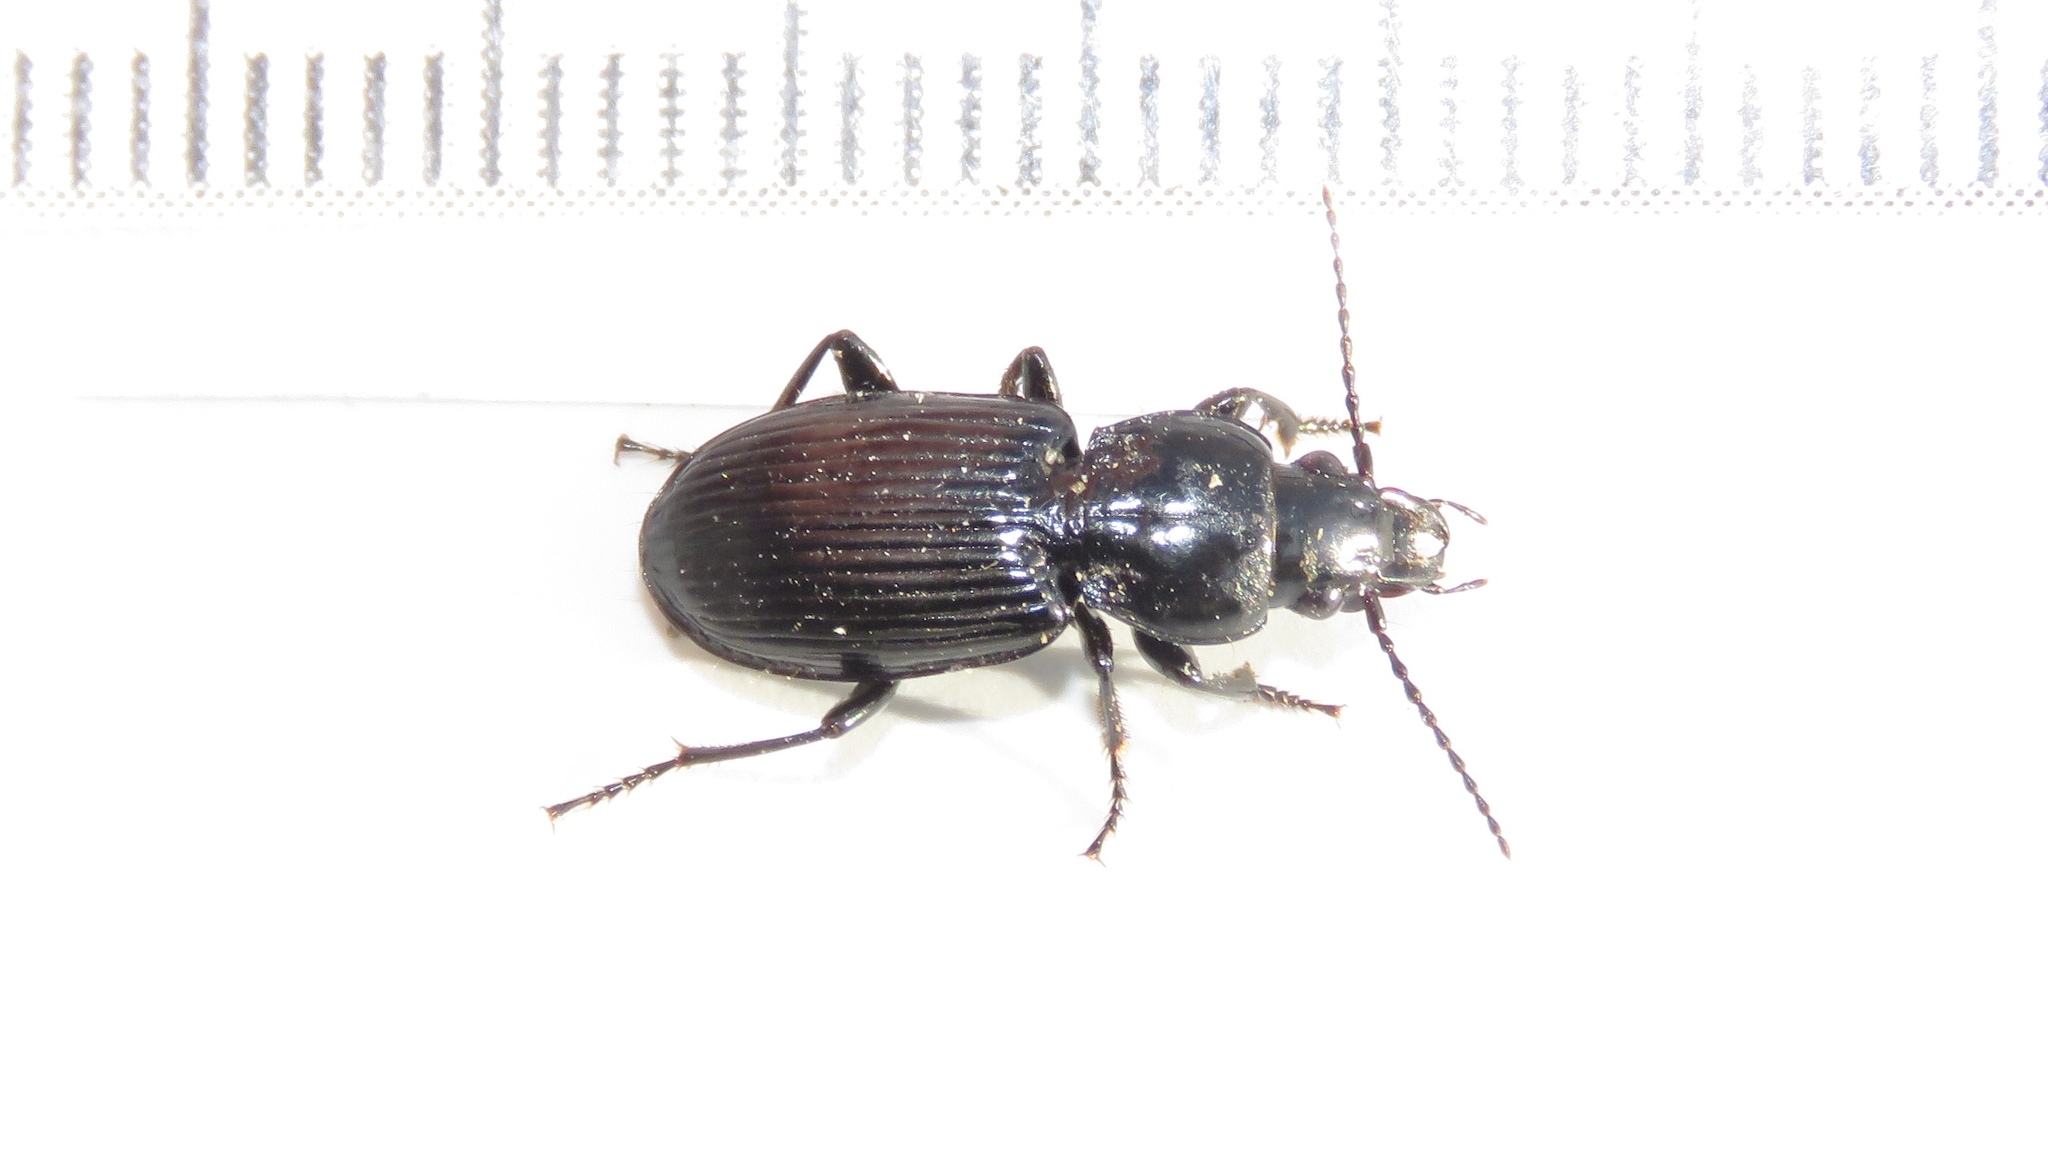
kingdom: Animalia
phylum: Arthropoda
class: Insecta
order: Coleoptera
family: Carabidae
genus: Pterostichus
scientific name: Pterostichus corvinus
